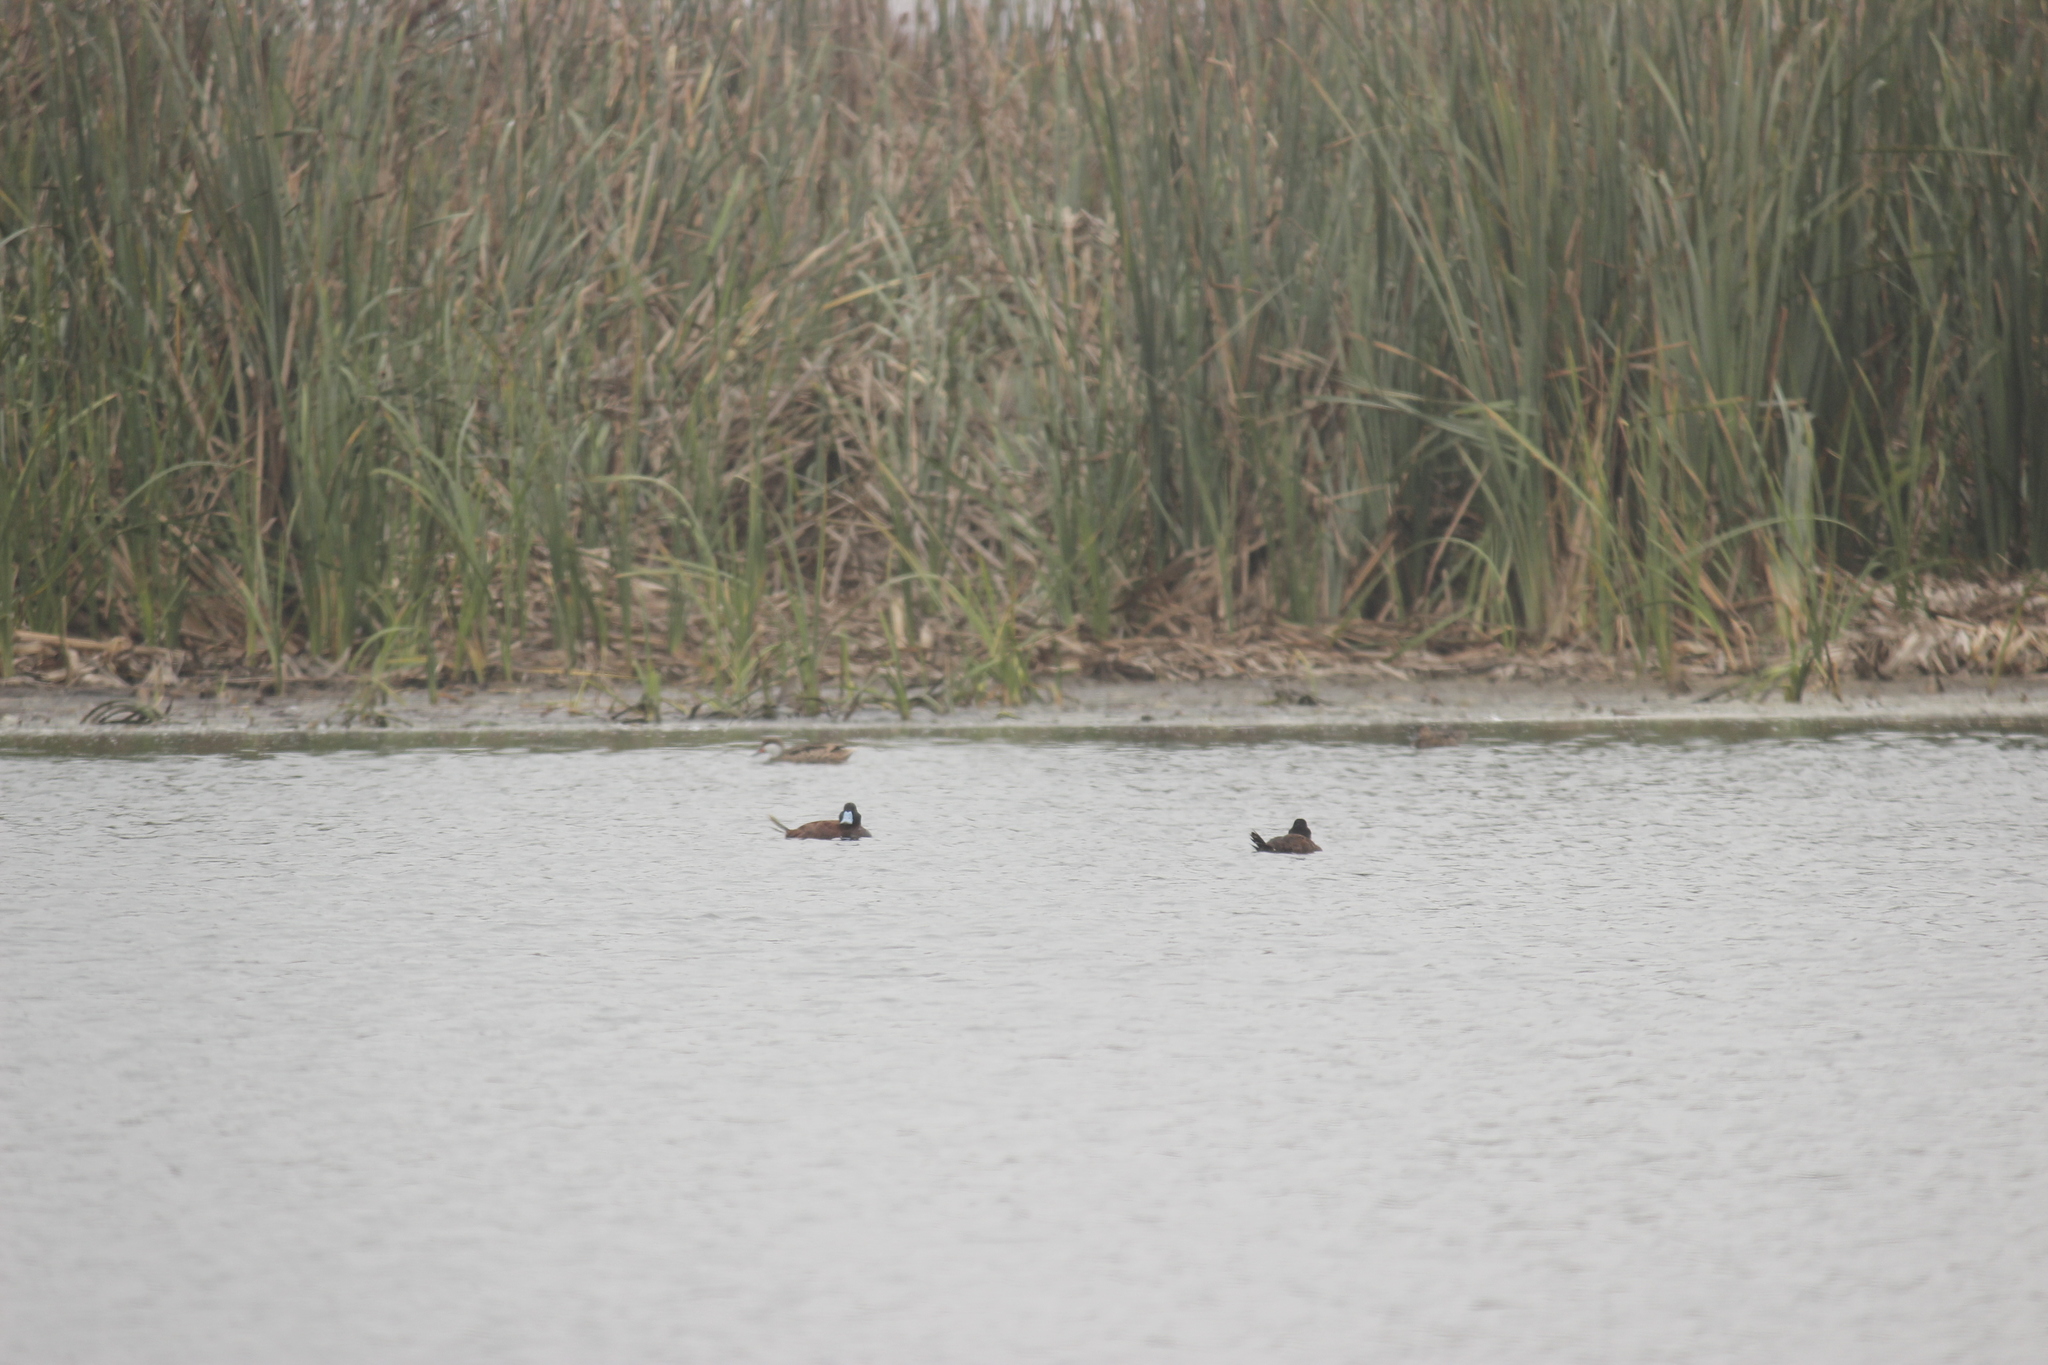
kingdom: Animalia
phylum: Chordata
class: Aves
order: Anseriformes
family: Anatidae
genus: Oxyura
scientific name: Oxyura ferruginea
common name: Andean duck
